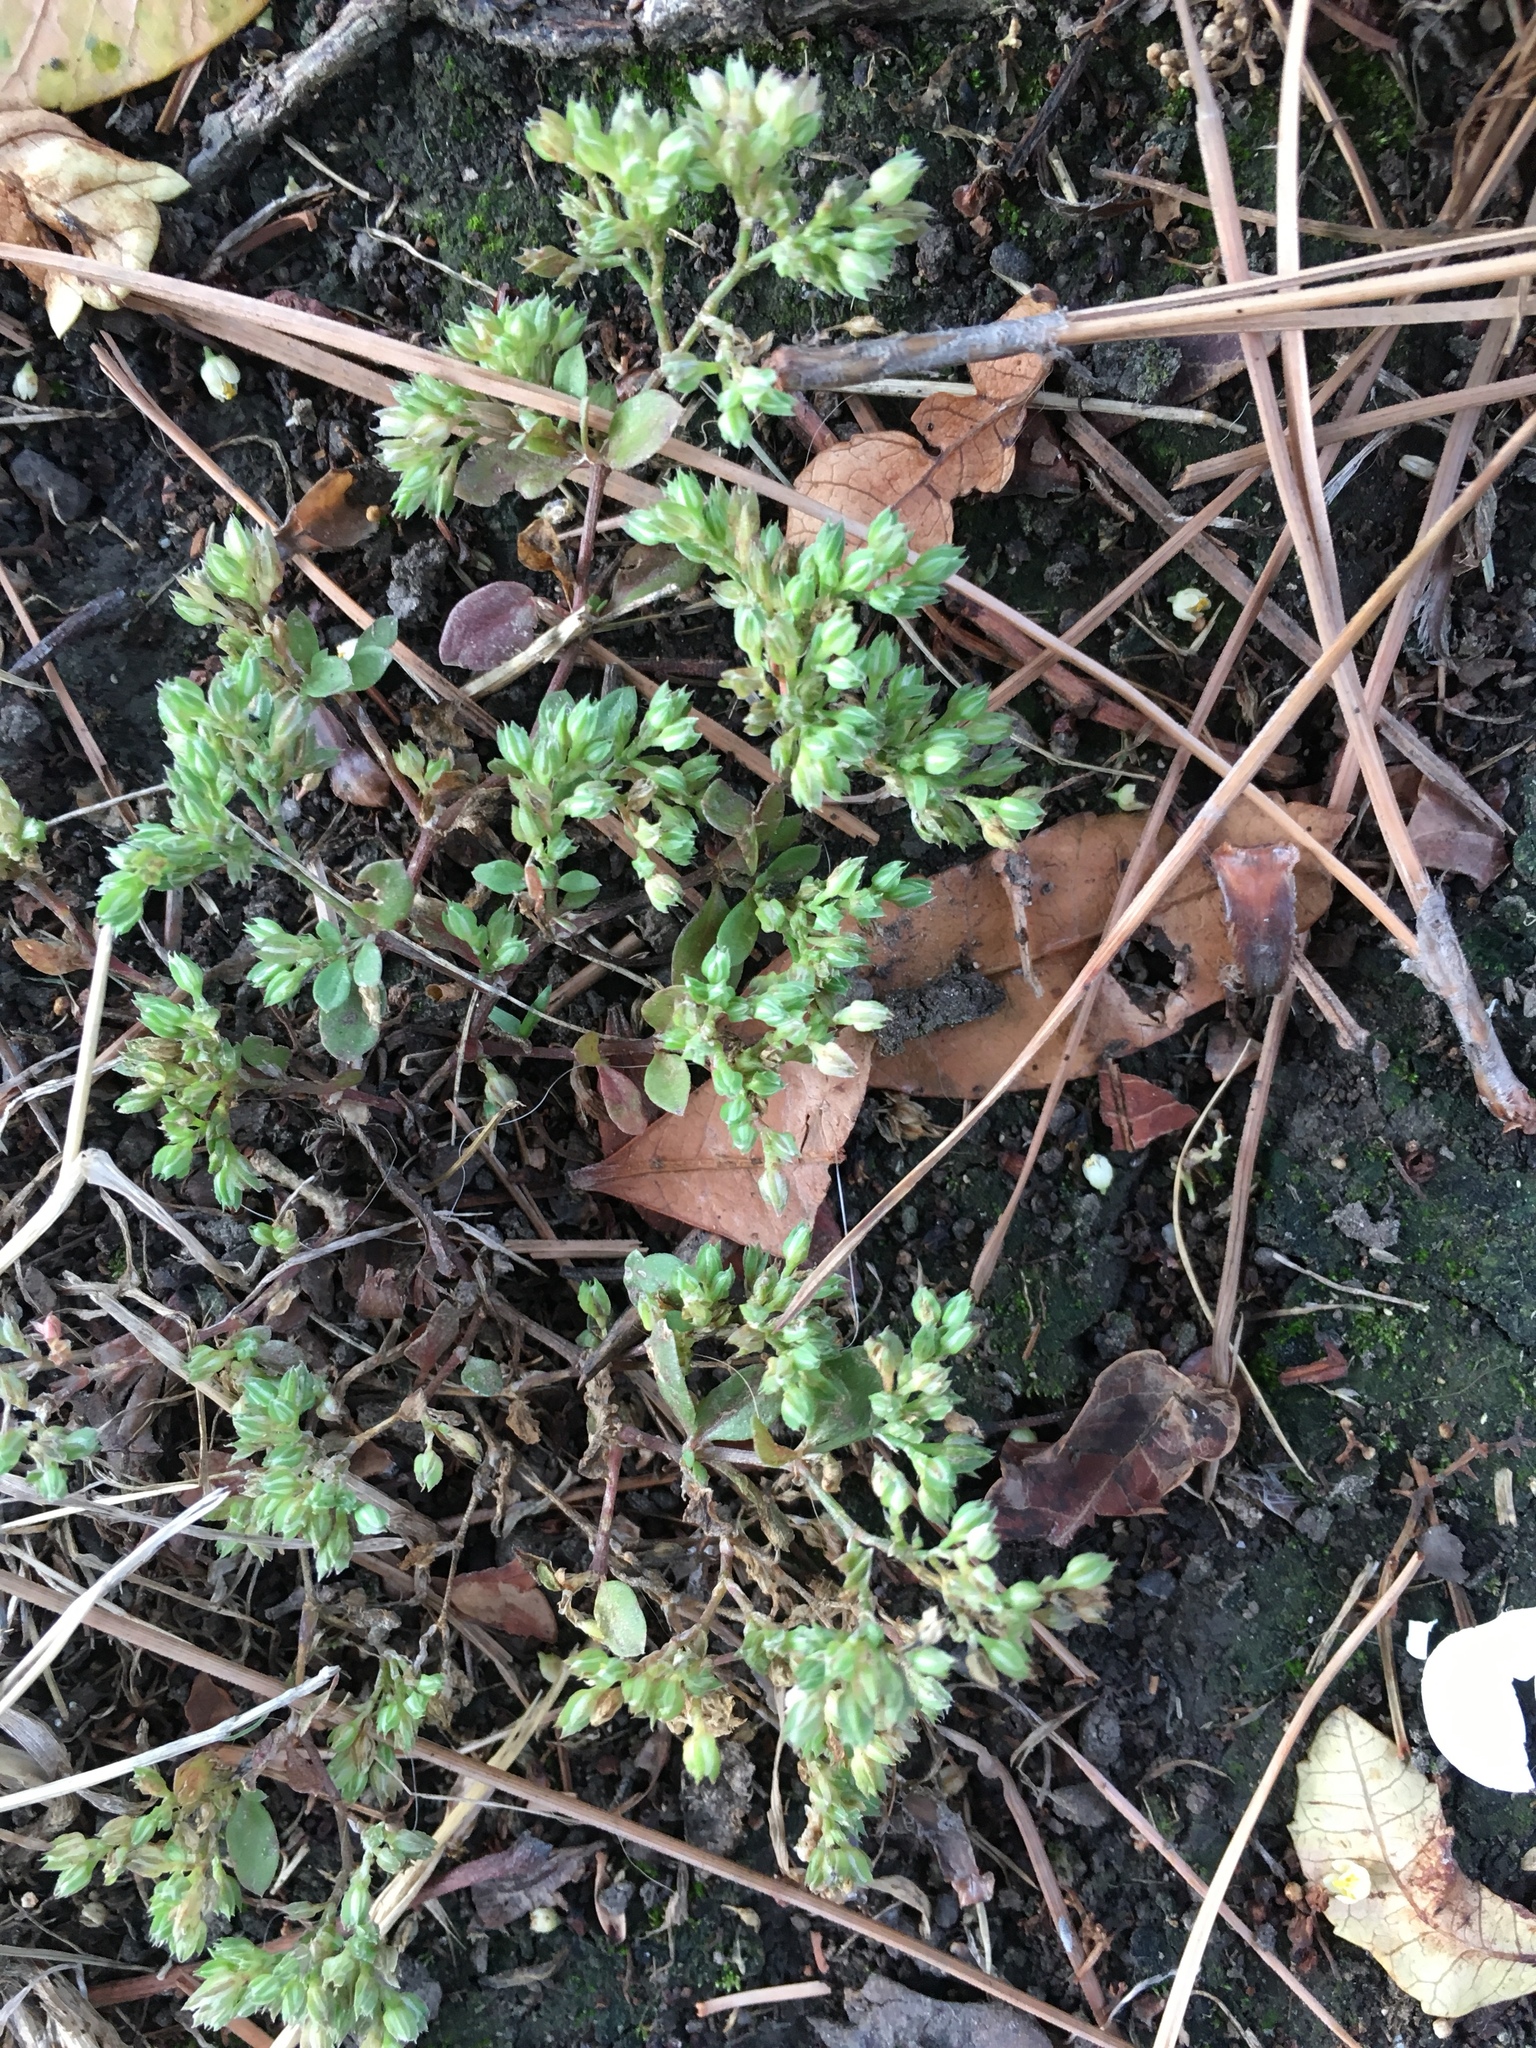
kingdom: Plantae
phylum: Tracheophyta
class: Magnoliopsida
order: Caryophyllales
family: Caryophyllaceae
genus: Polycarpon
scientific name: Polycarpon tetraphyllum
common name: Four-leaved all-seed
